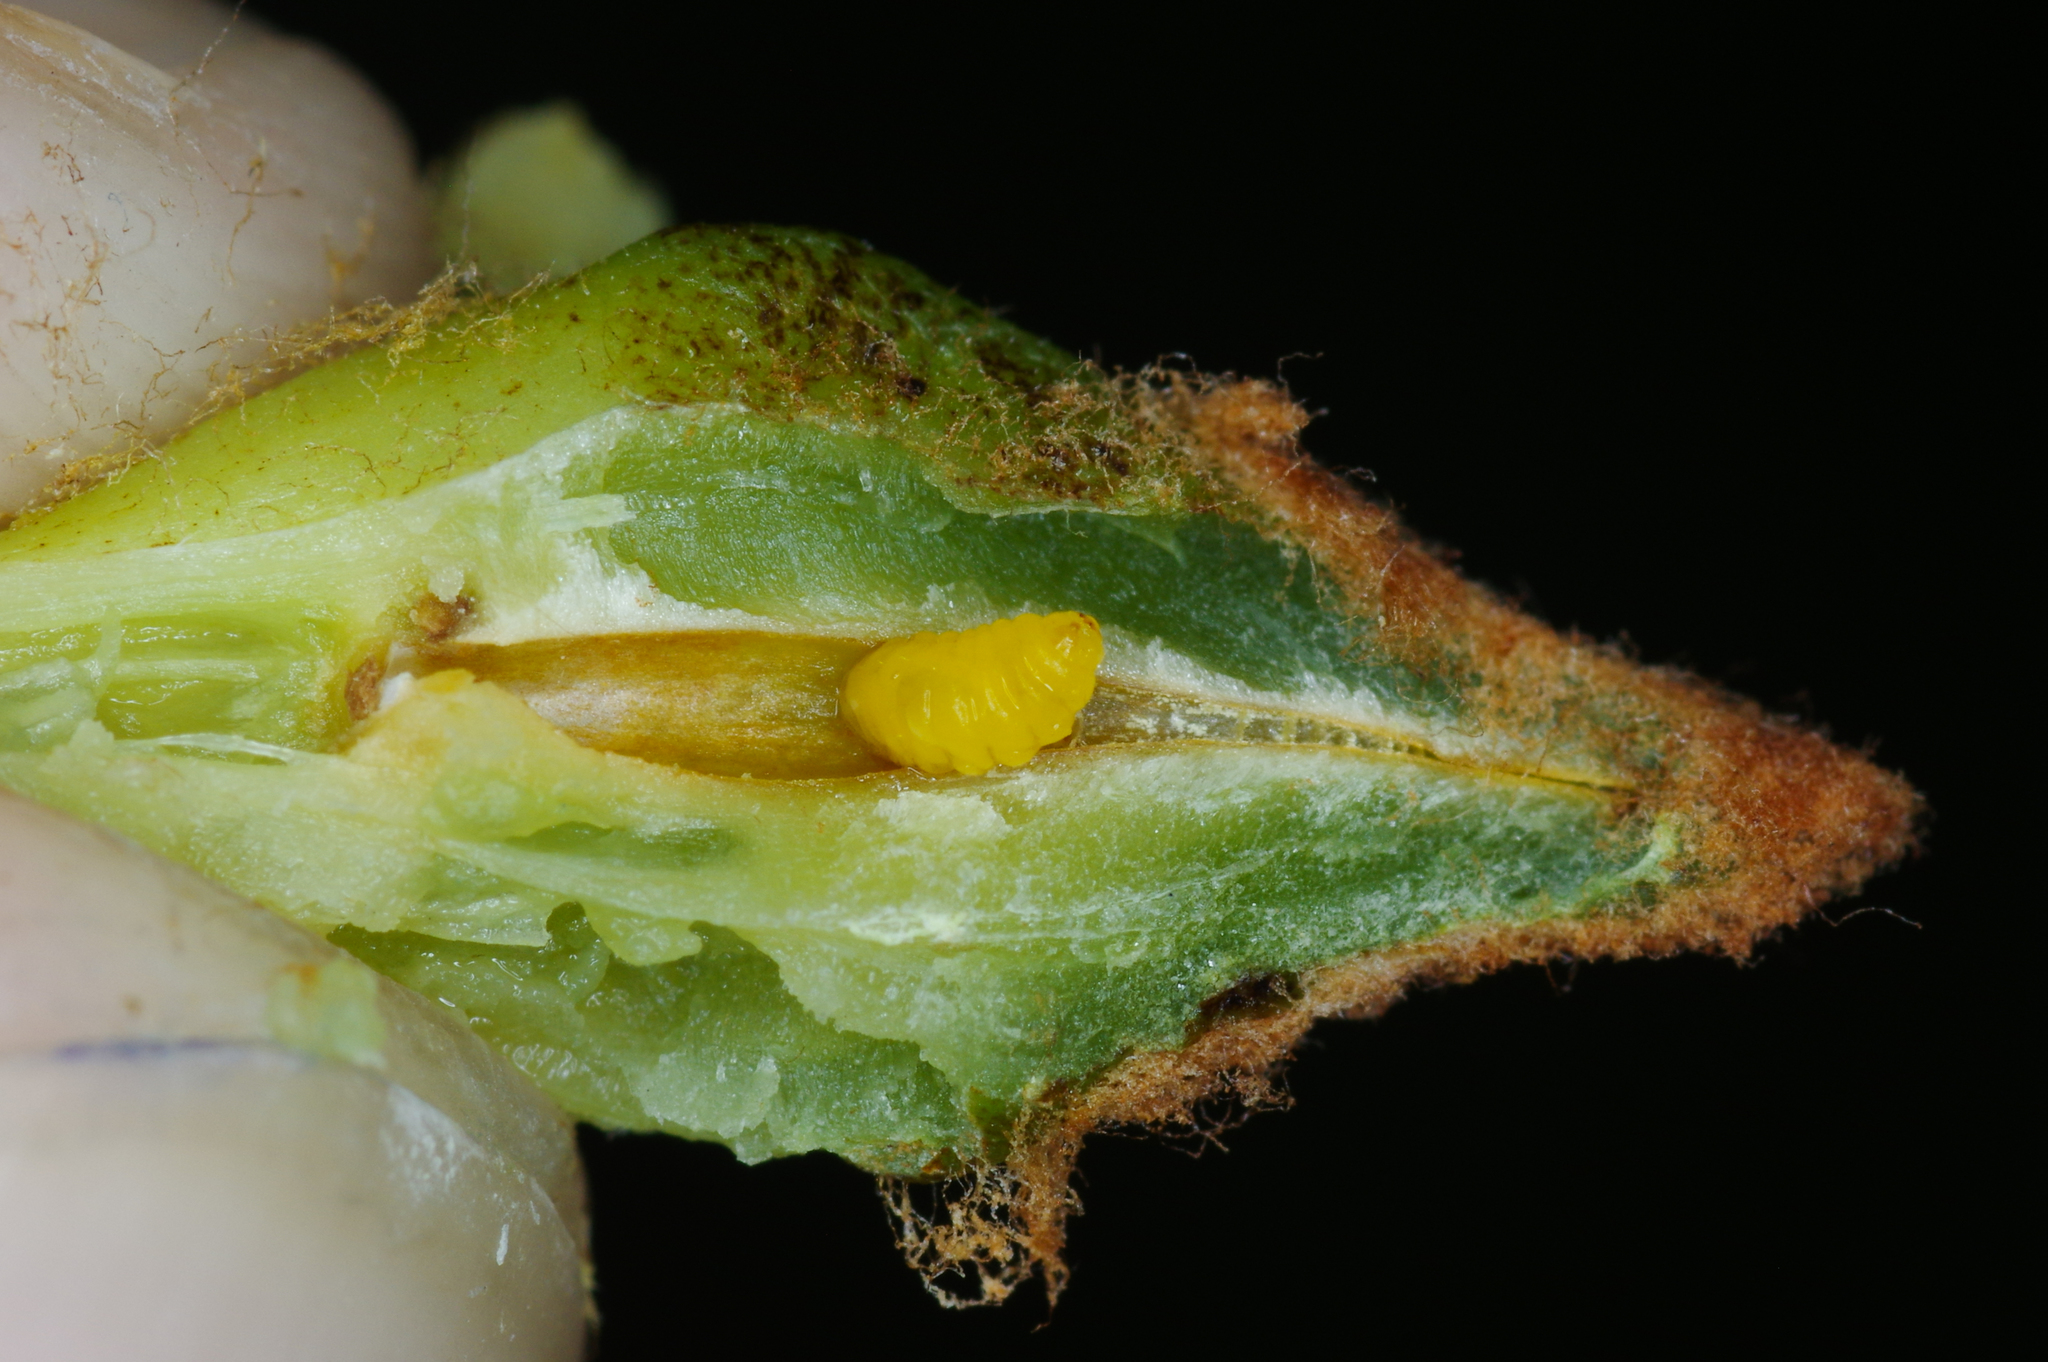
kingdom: Animalia
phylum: Arthropoda
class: Insecta
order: Diptera
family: Cecidomyiidae
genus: Ampelomyia
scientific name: Ampelomyia vitiscoryloides
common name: Grape filbert gall
